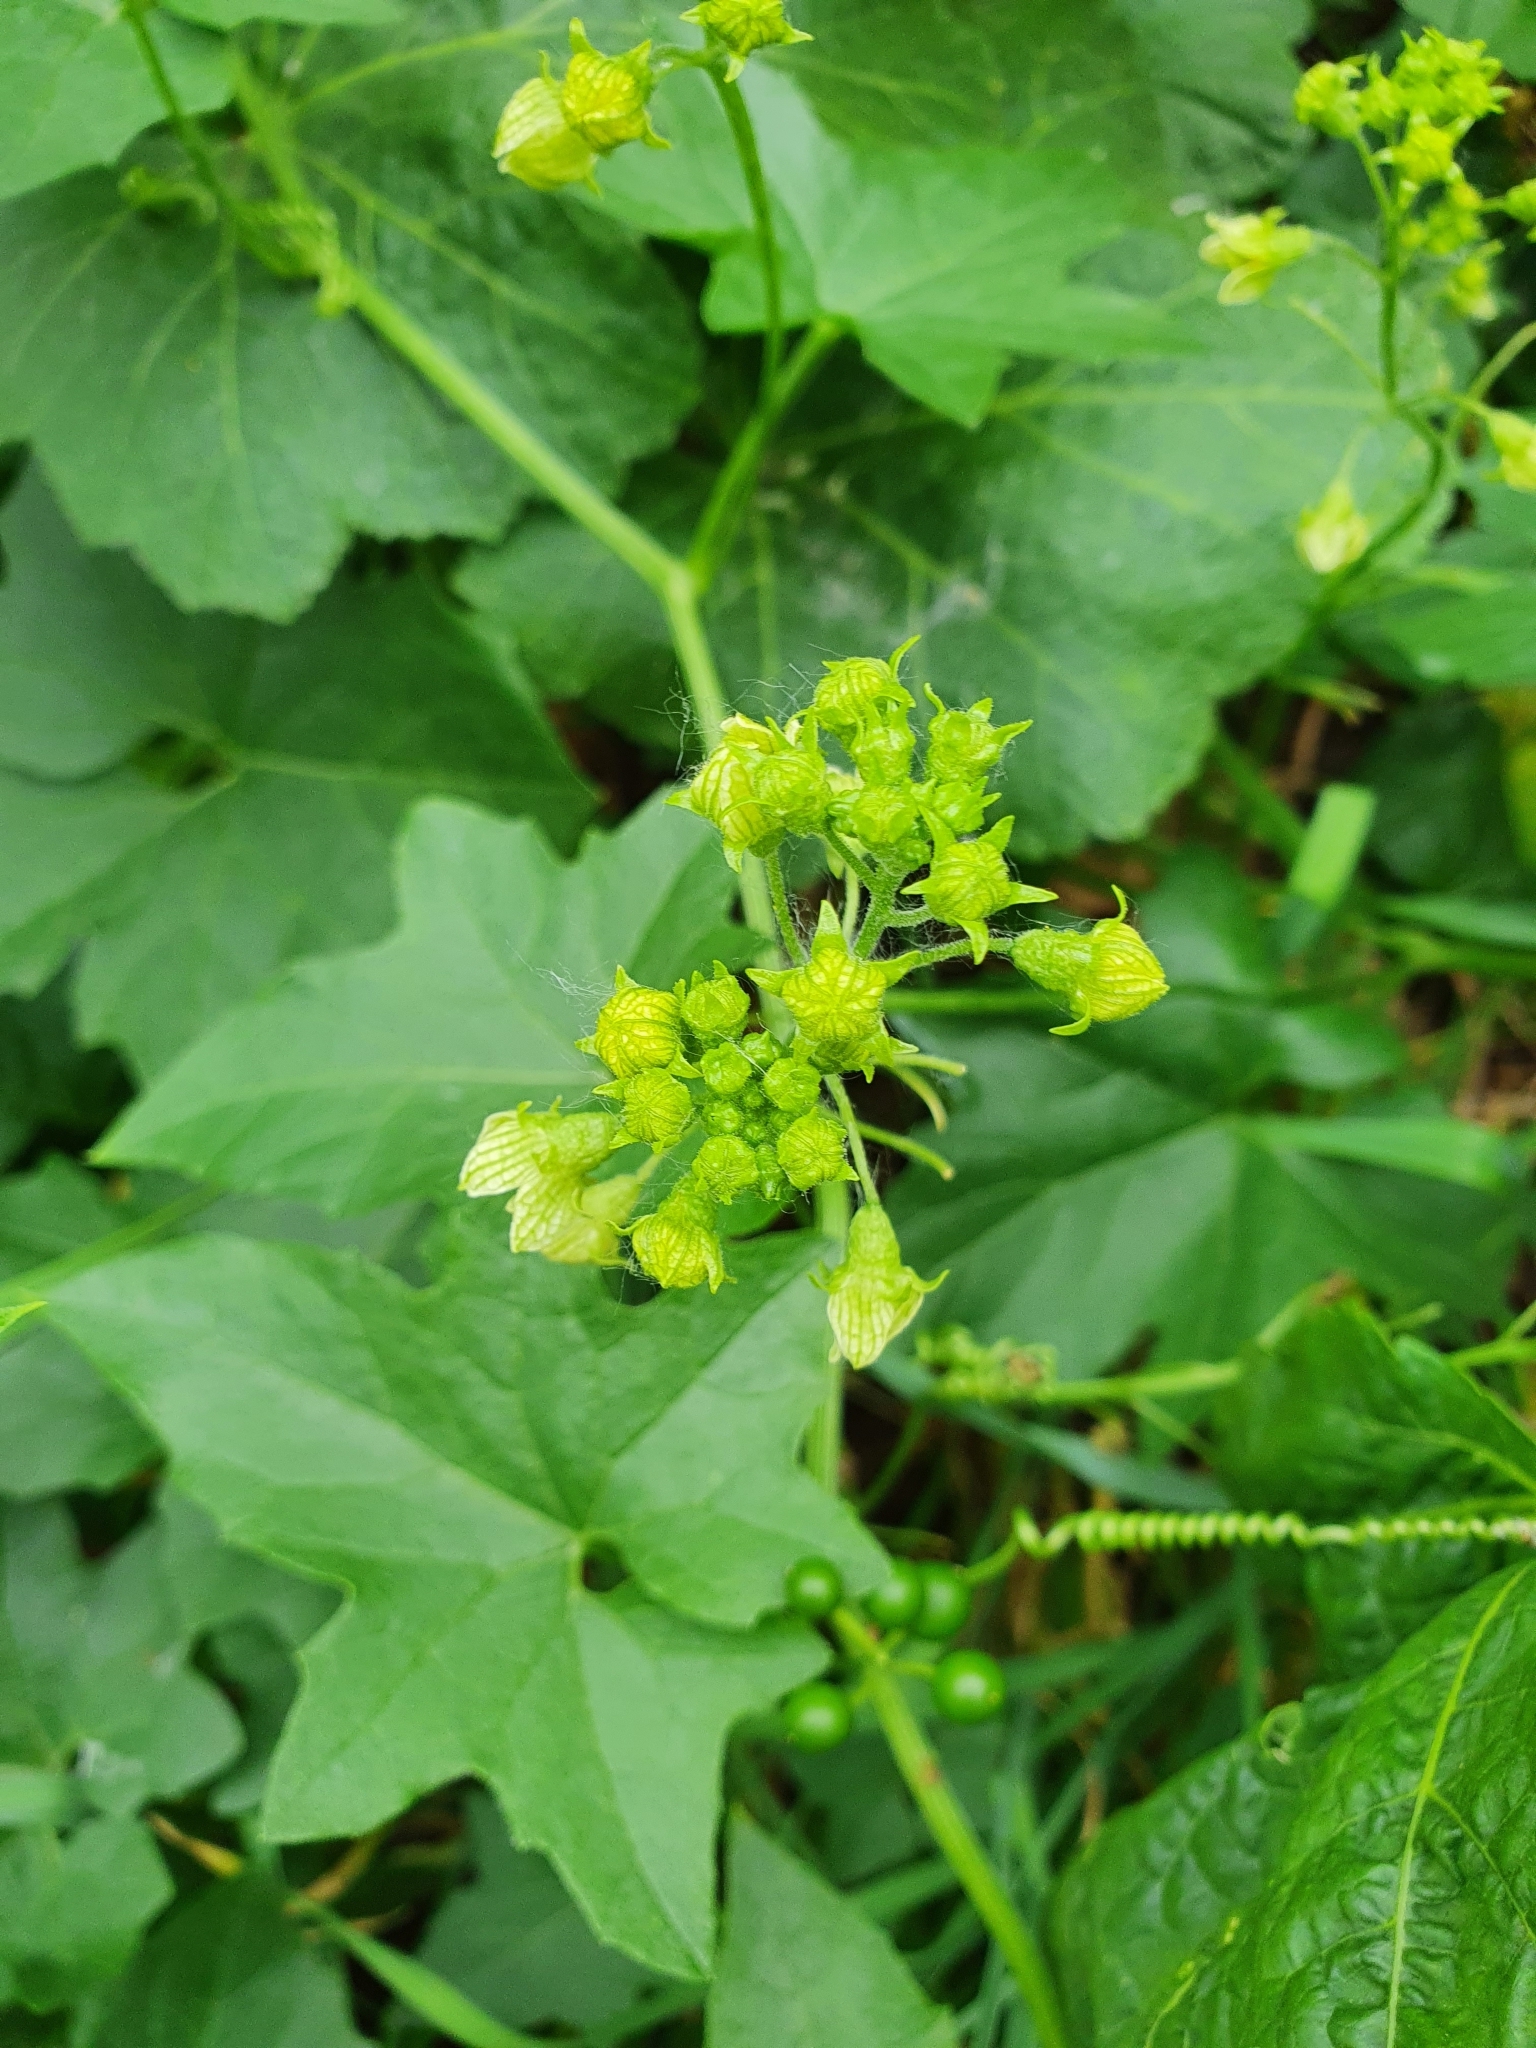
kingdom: Plantae
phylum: Tracheophyta
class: Magnoliopsida
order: Cucurbitales
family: Cucurbitaceae
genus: Bryonia
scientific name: Bryonia alba
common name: White bryony
